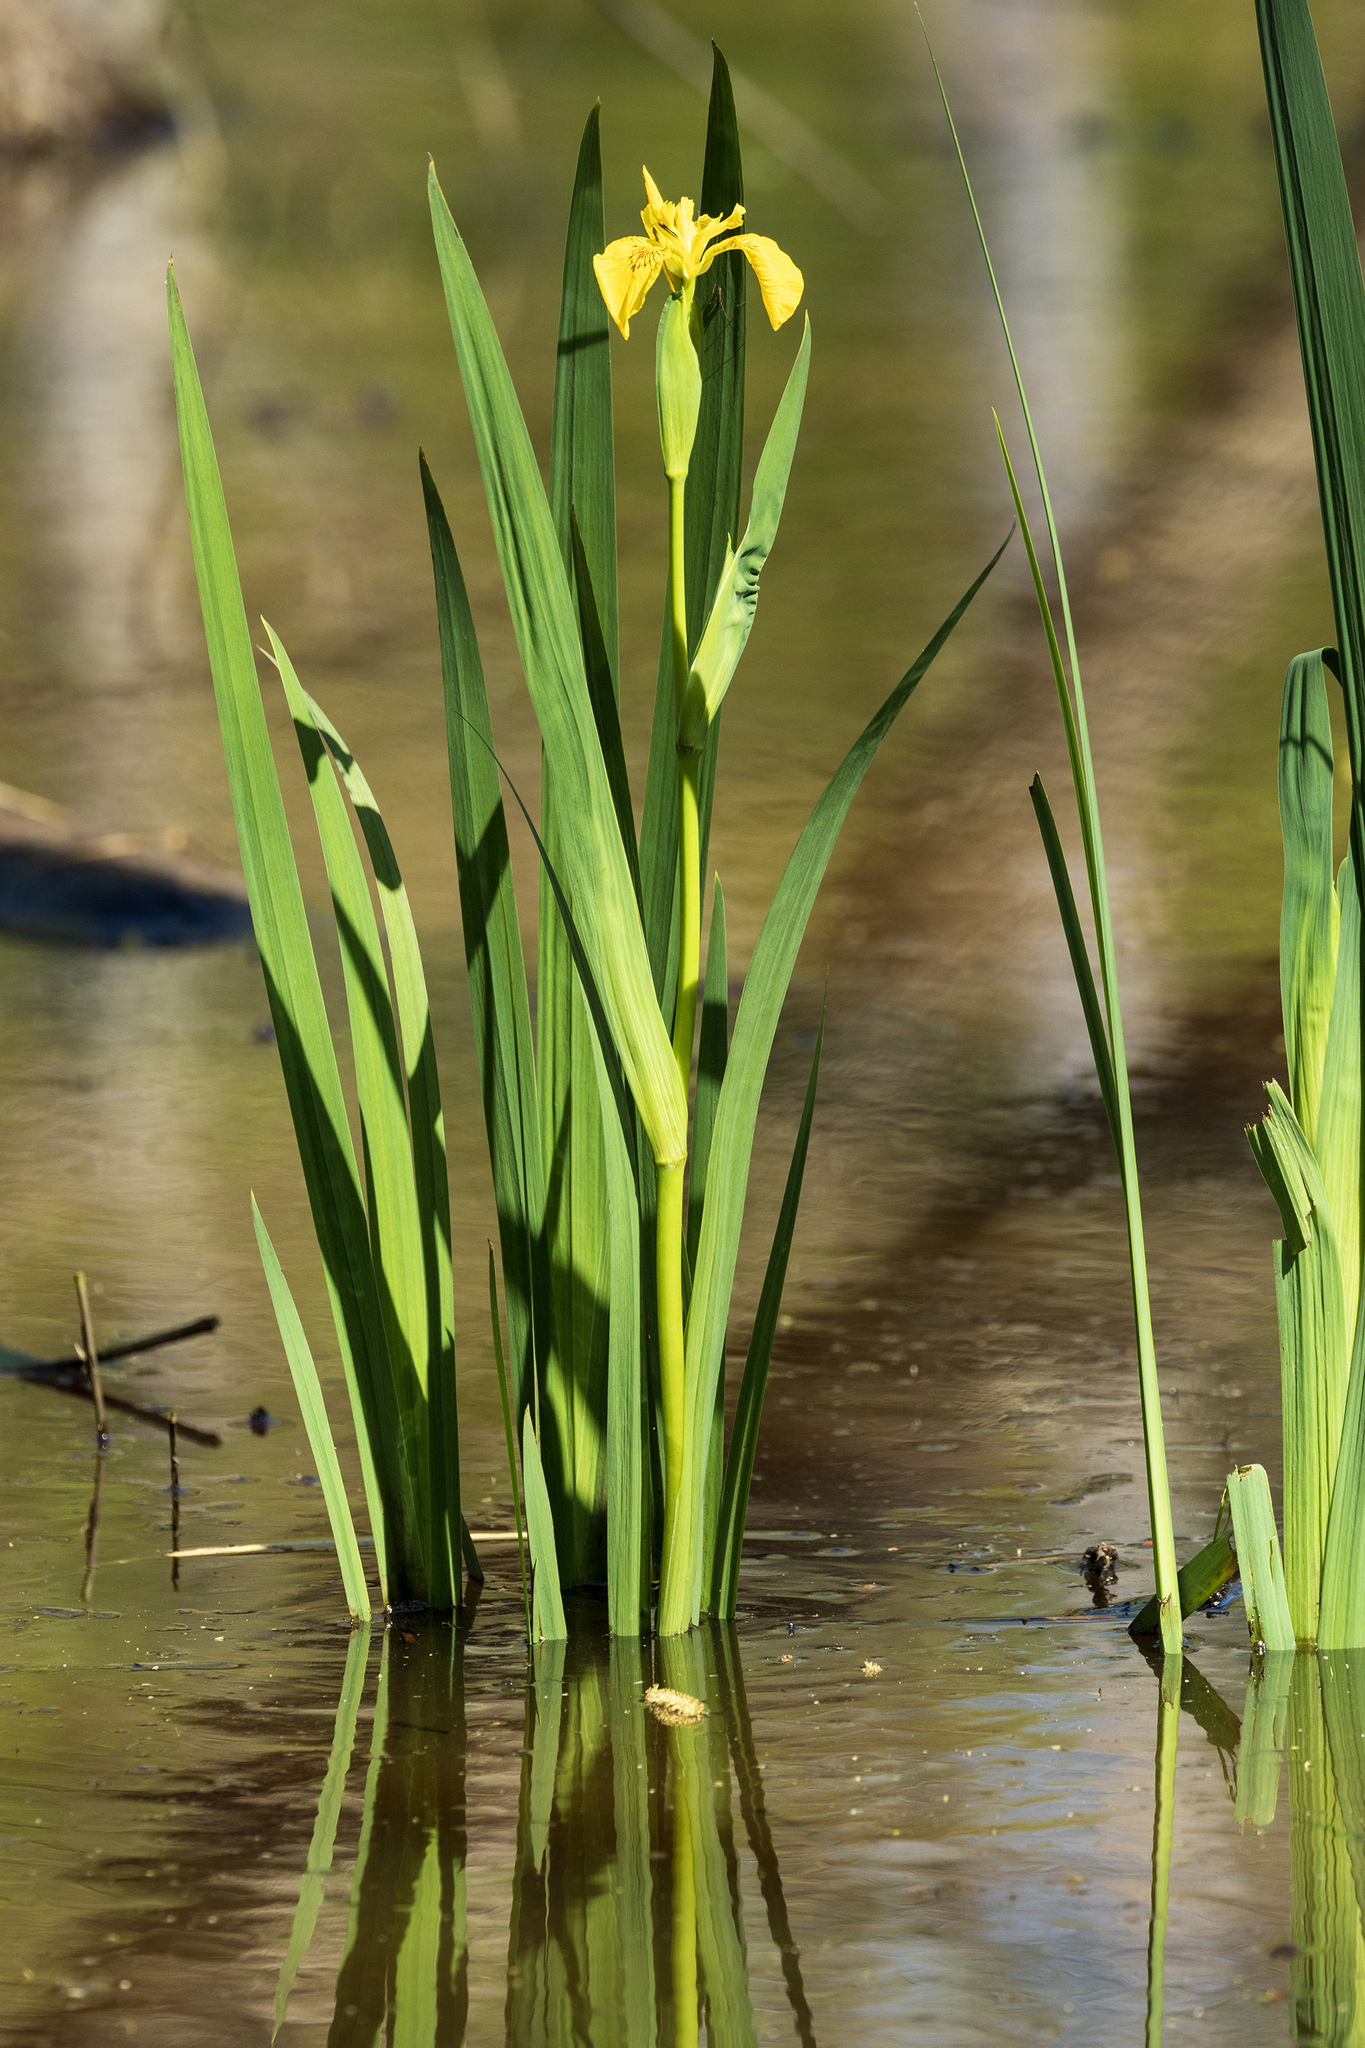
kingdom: Plantae
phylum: Tracheophyta
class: Liliopsida
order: Asparagales
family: Iridaceae
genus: Iris
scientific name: Iris pseudacorus
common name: Yellow flag
